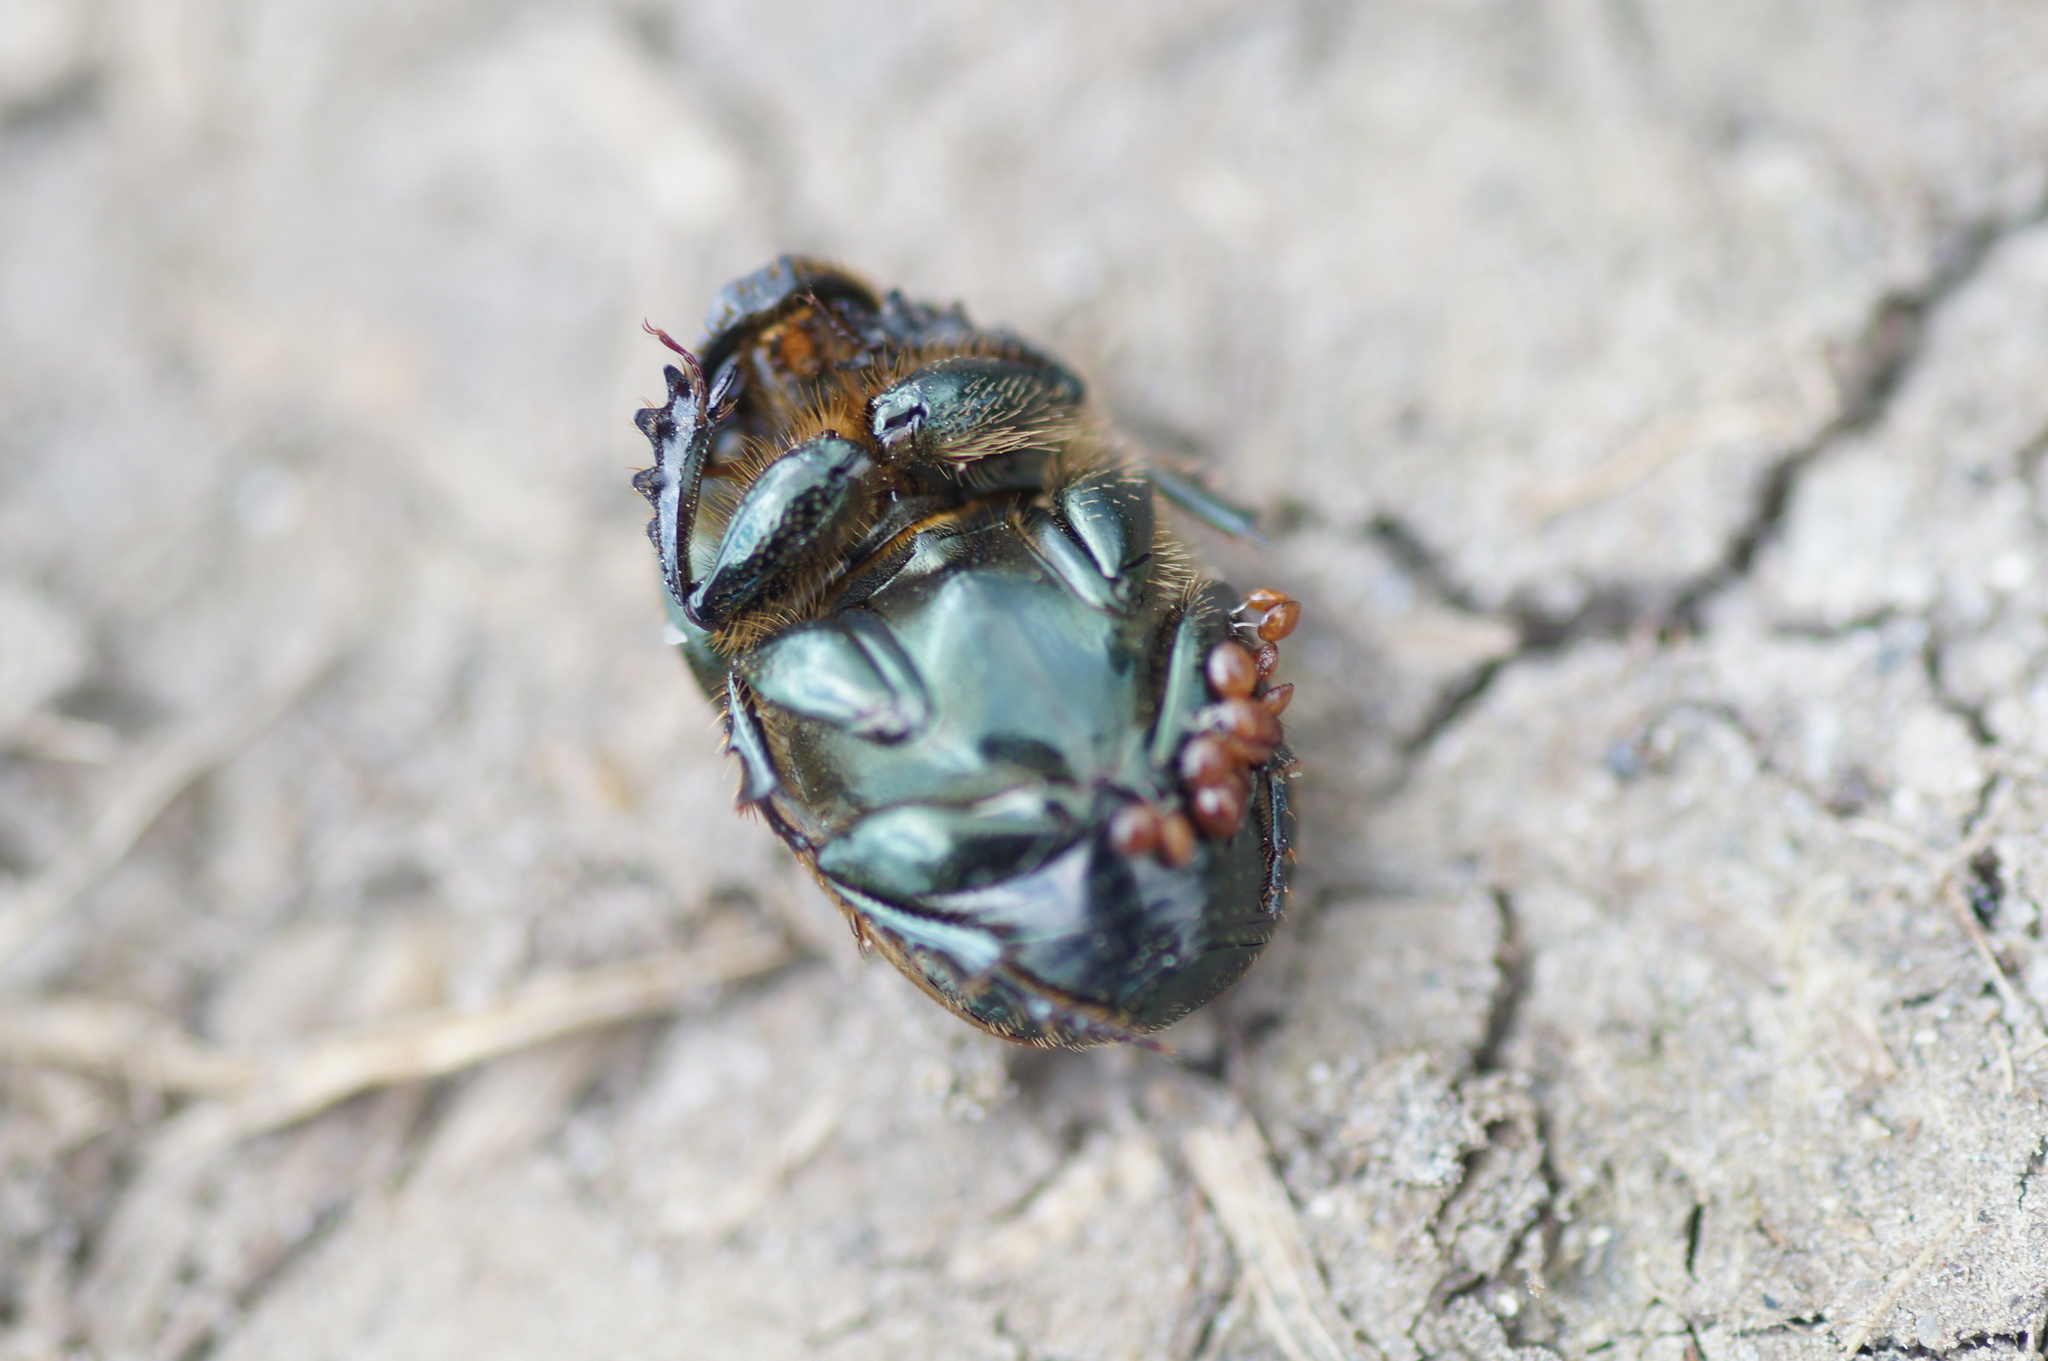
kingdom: Animalia
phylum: Arthropoda
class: Insecta
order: Coleoptera
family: Scarabaeidae
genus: Onthophagus
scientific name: Onthophagus vacca
